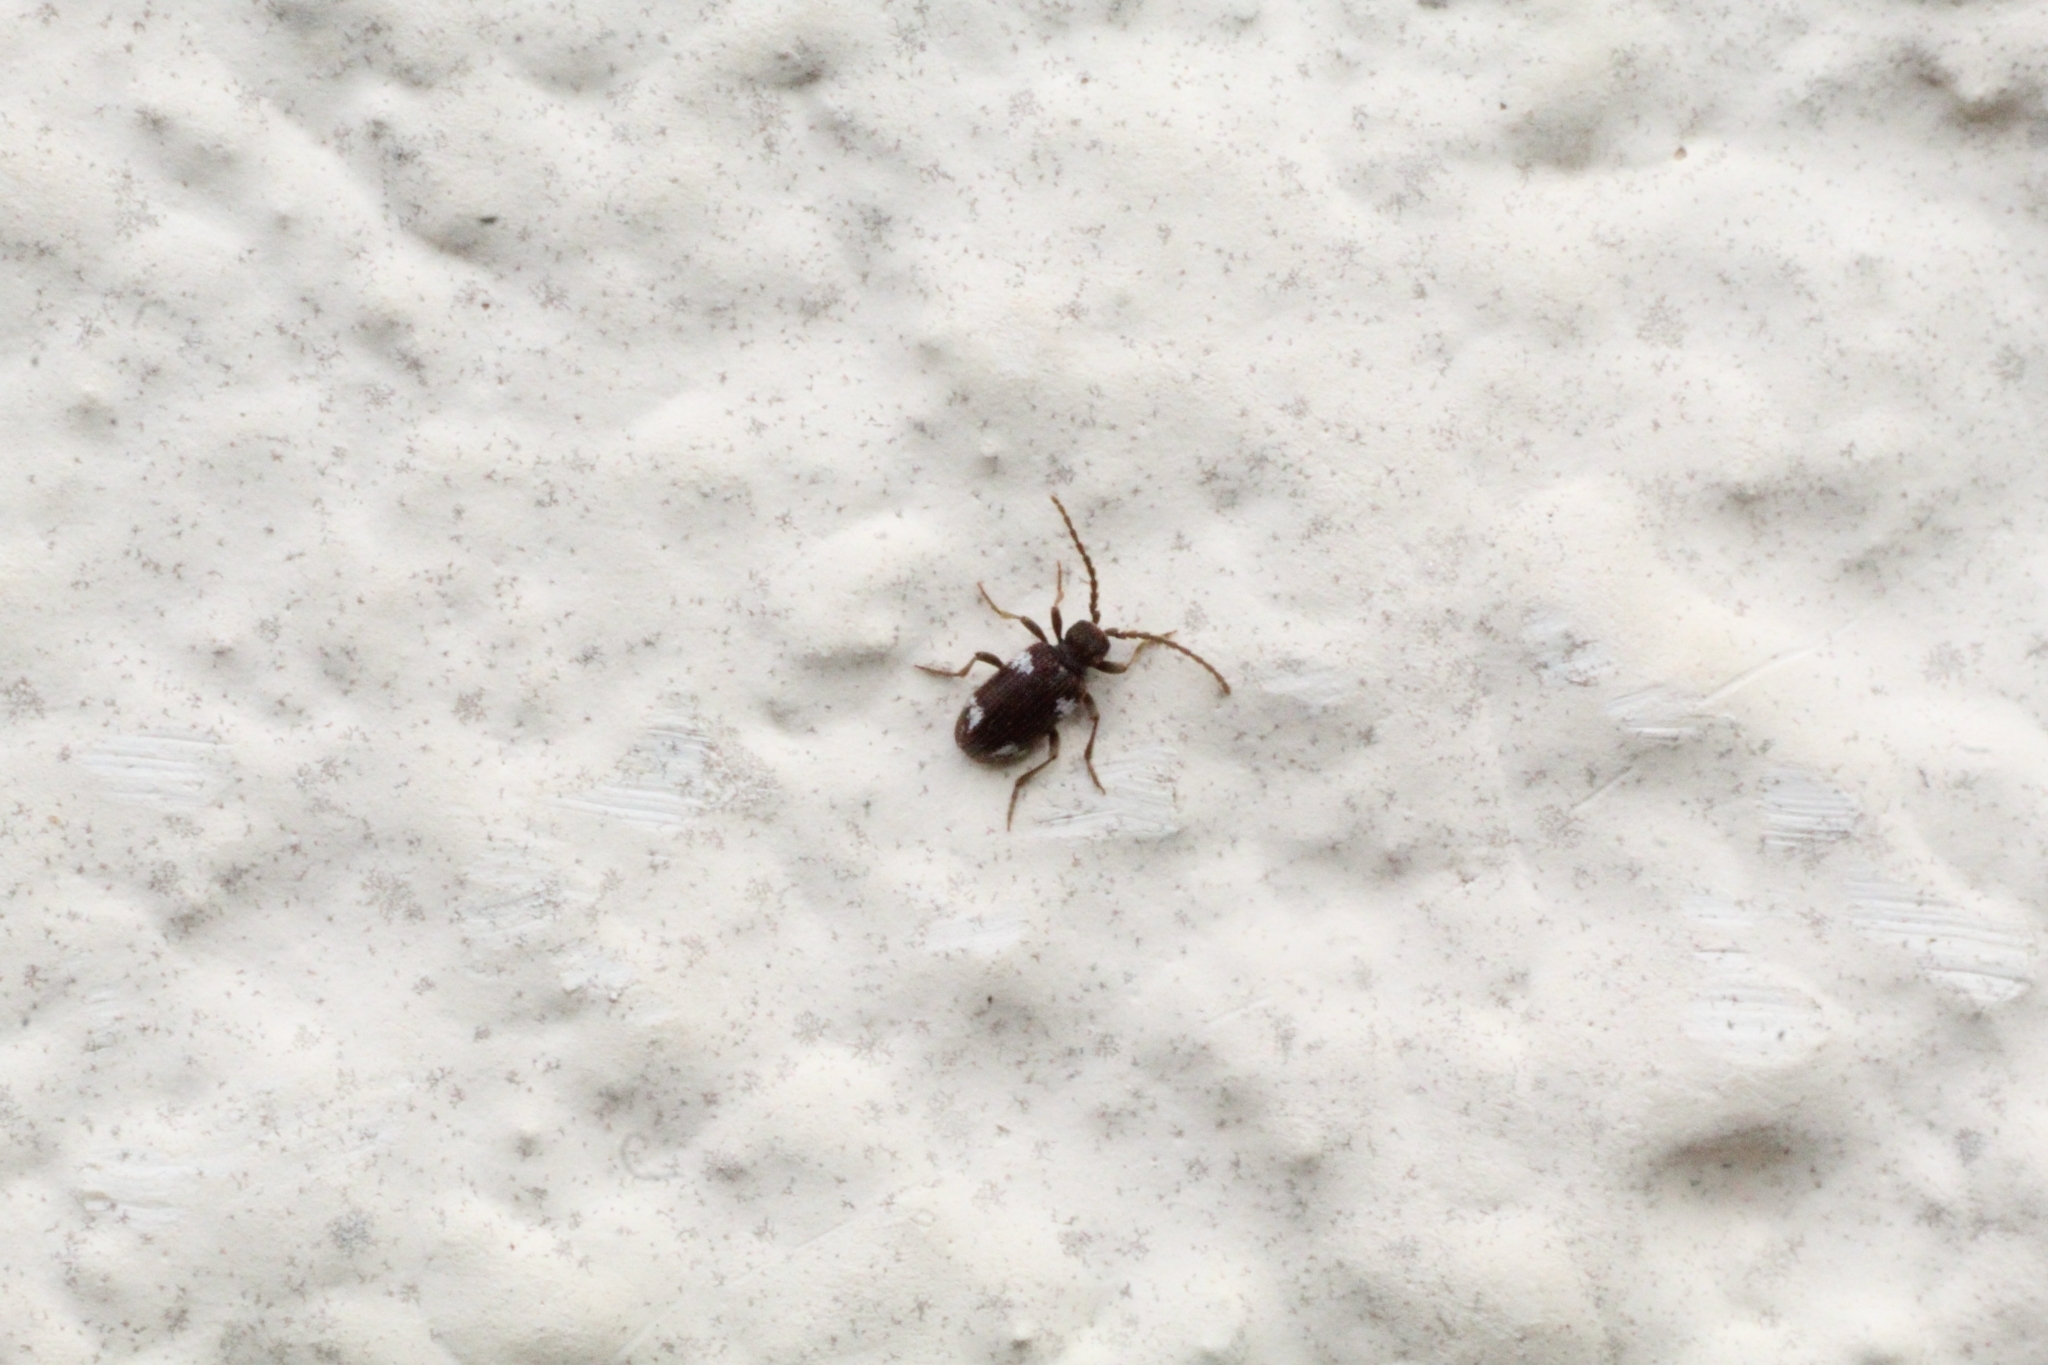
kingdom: Animalia
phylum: Arthropoda
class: Insecta
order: Coleoptera
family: Ptinidae
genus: Ptinus
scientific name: Ptinus sexpunctatus
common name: Six-spotted spider beetle
